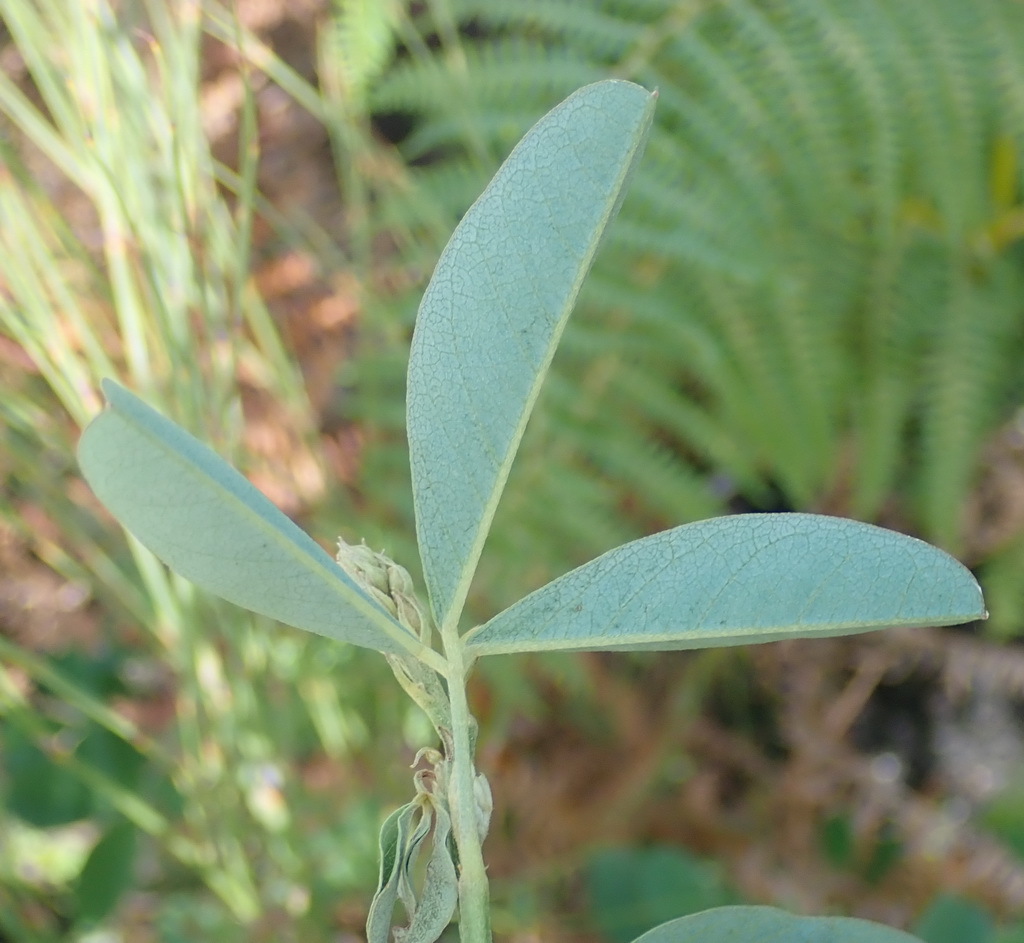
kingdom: Plantae
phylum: Tracheophyta
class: Magnoliopsida
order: Fabales
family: Fabaceae
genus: Hypocalyptus
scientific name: Hypocalyptus coluteoides
